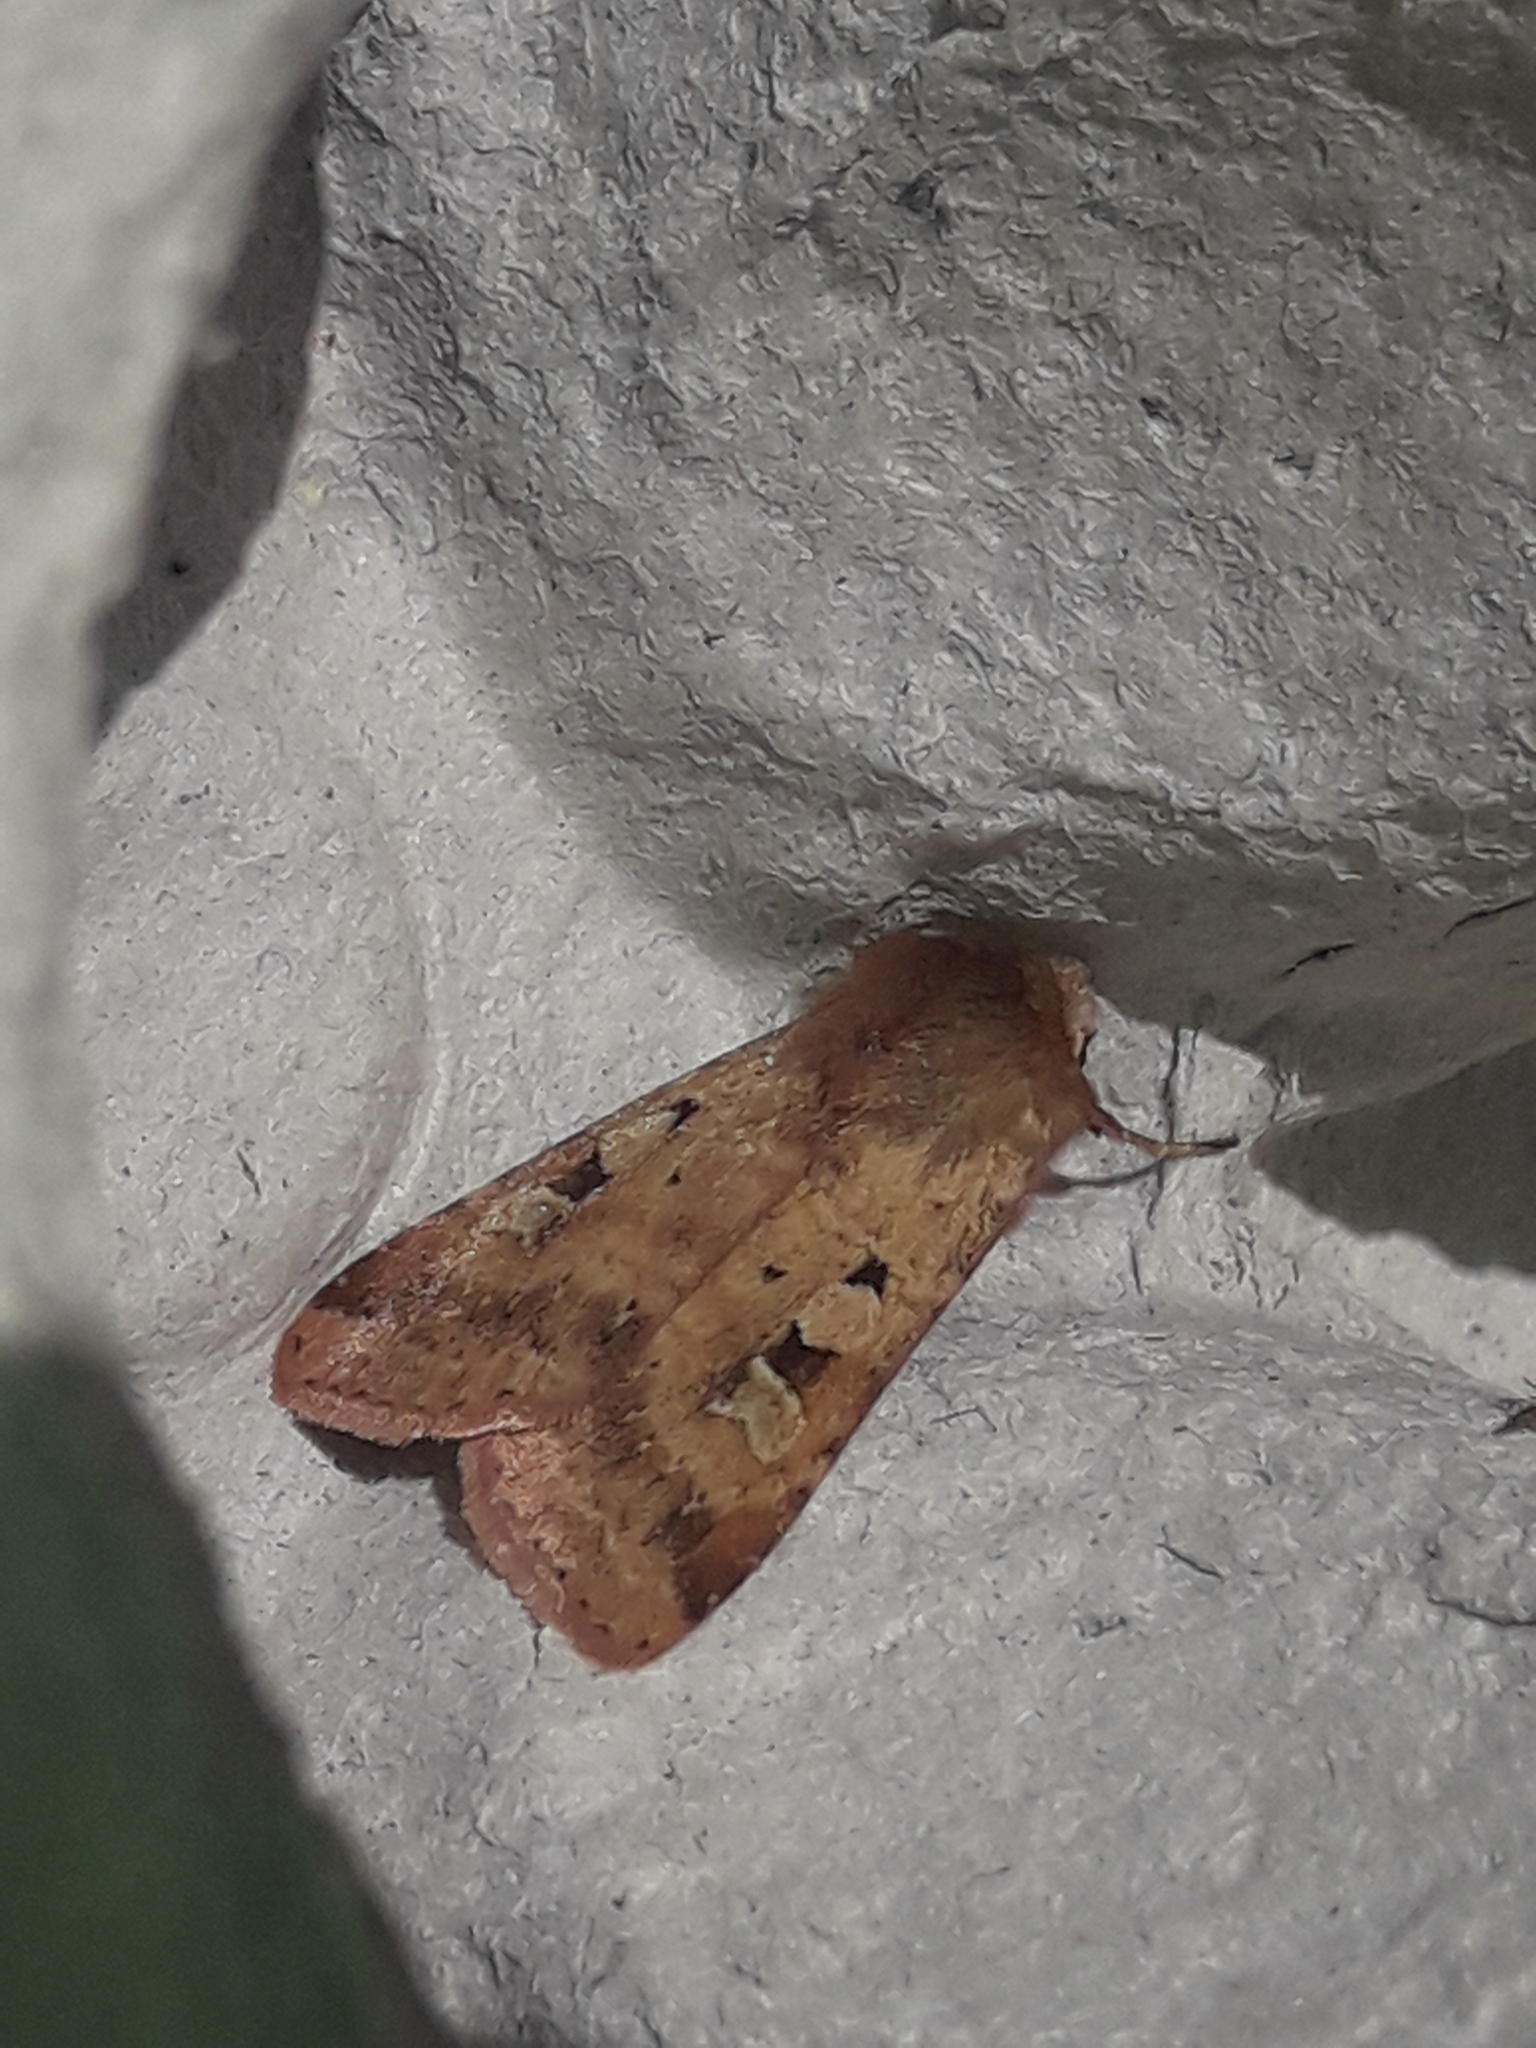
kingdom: Animalia
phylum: Arthropoda
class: Insecta
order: Lepidoptera
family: Noctuidae
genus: Diarsia
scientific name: Diarsia mendica
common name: Ingrailed clay
